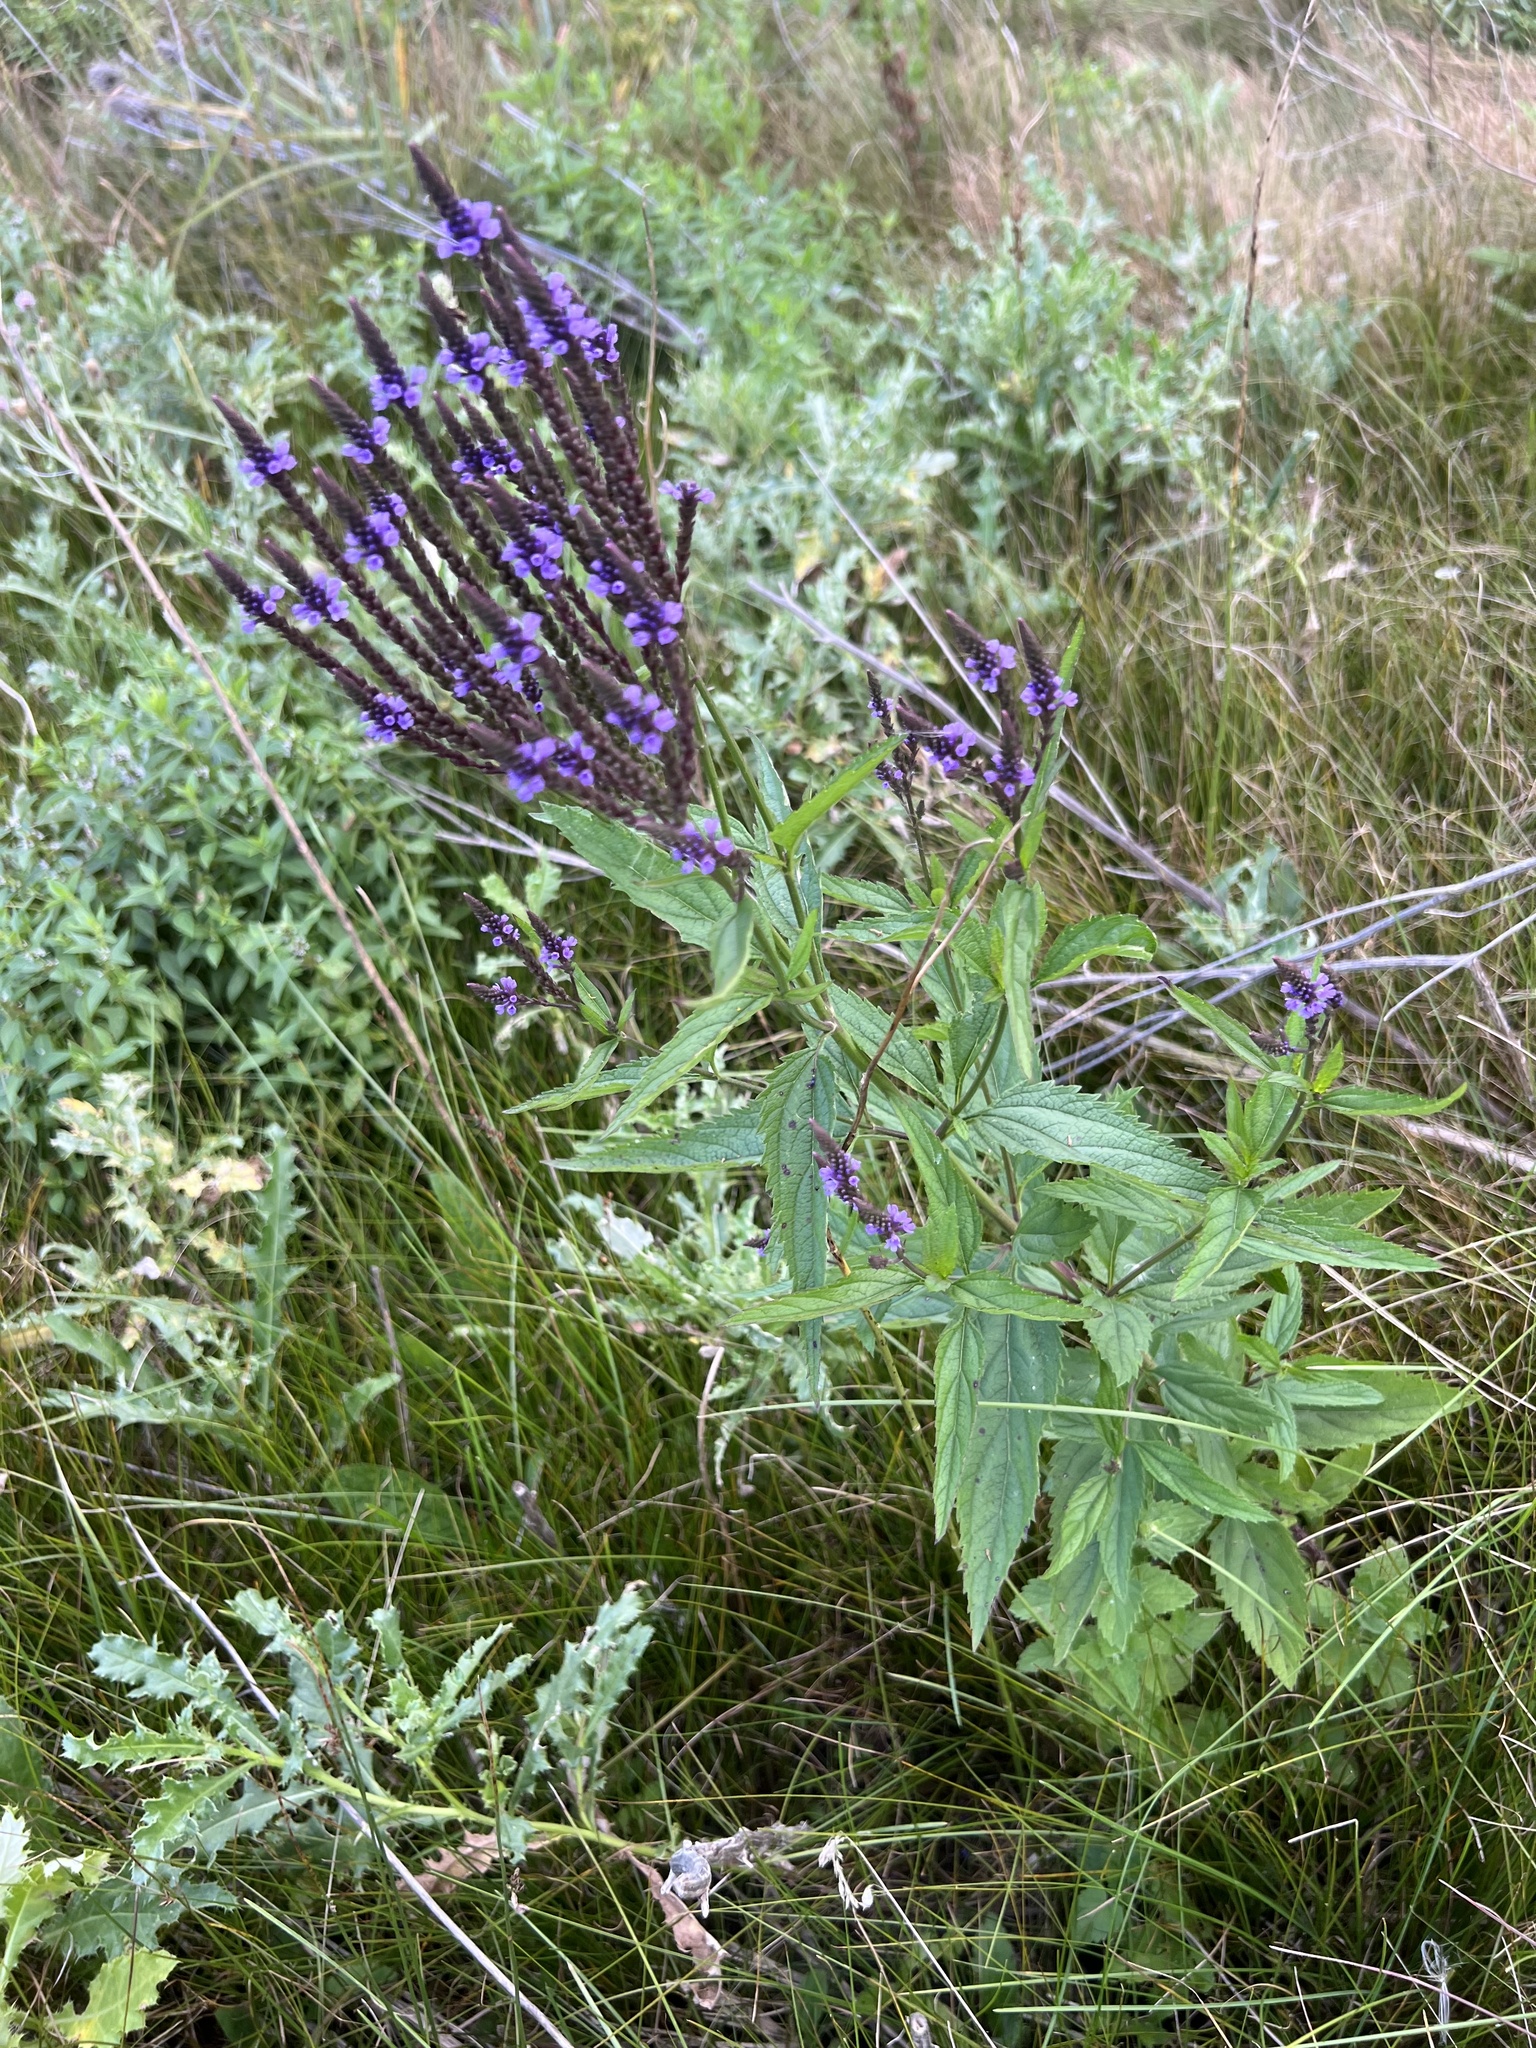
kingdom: Plantae
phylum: Tracheophyta
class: Magnoliopsida
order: Lamiales
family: Verbenaceae
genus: Verbena
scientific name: Verbena hastata
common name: American blue vervain
